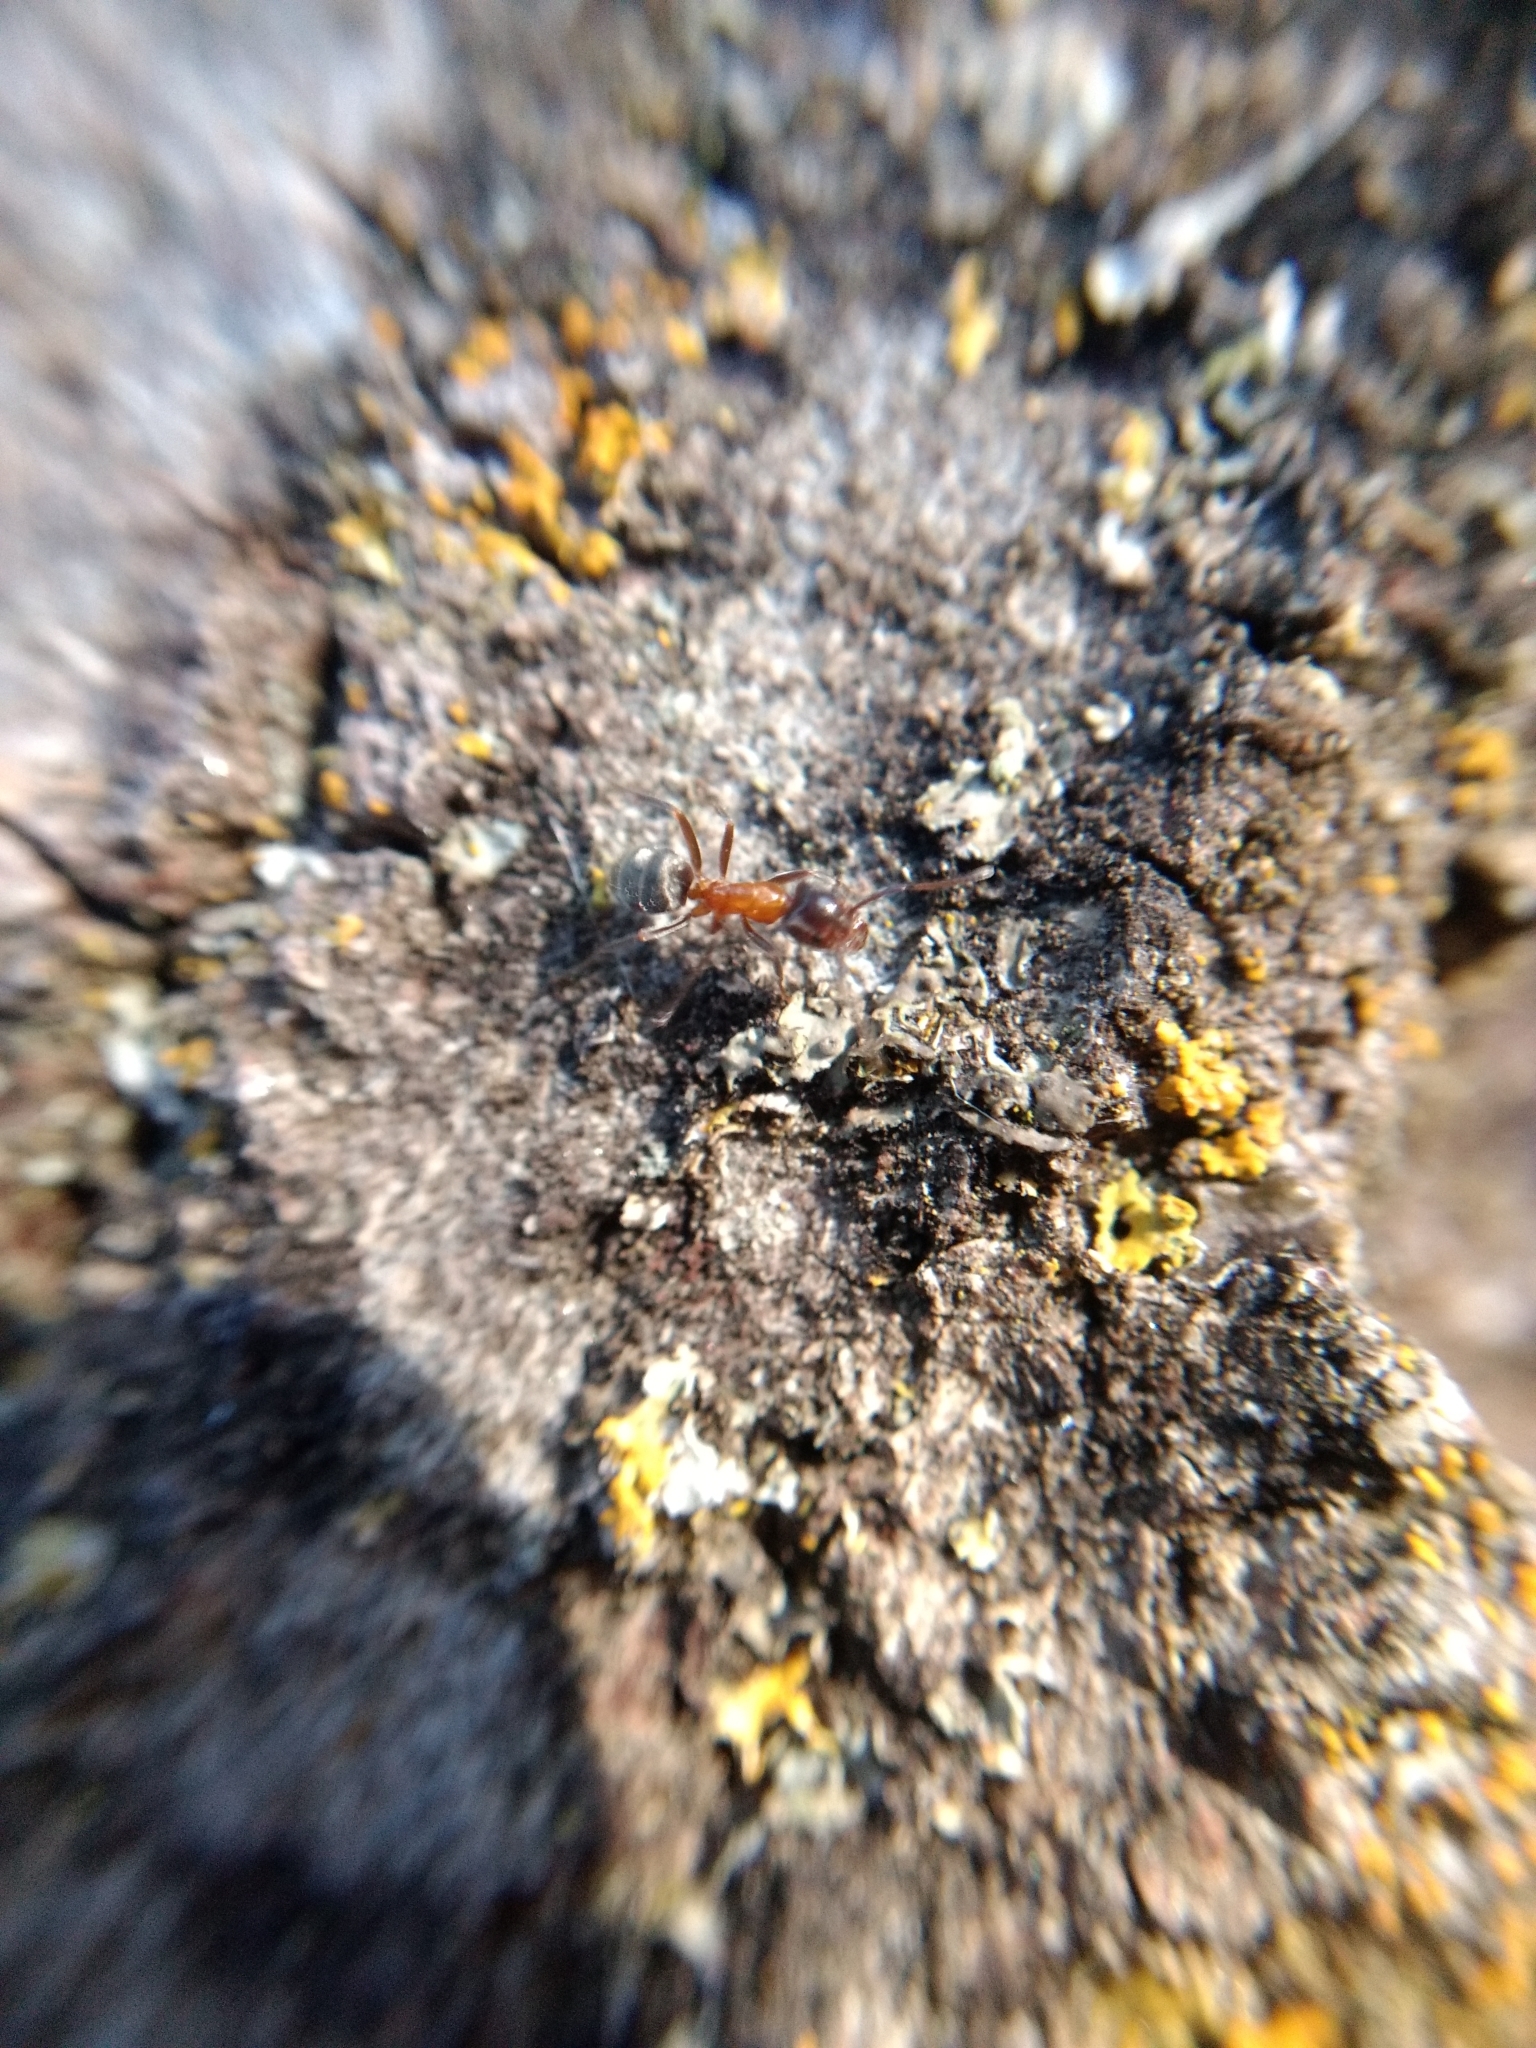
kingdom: Animalia
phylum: Arthropoda
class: Insecta
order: Hymenoptera
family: Formicidae
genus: Liometopum
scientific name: Liometopum occidentale
